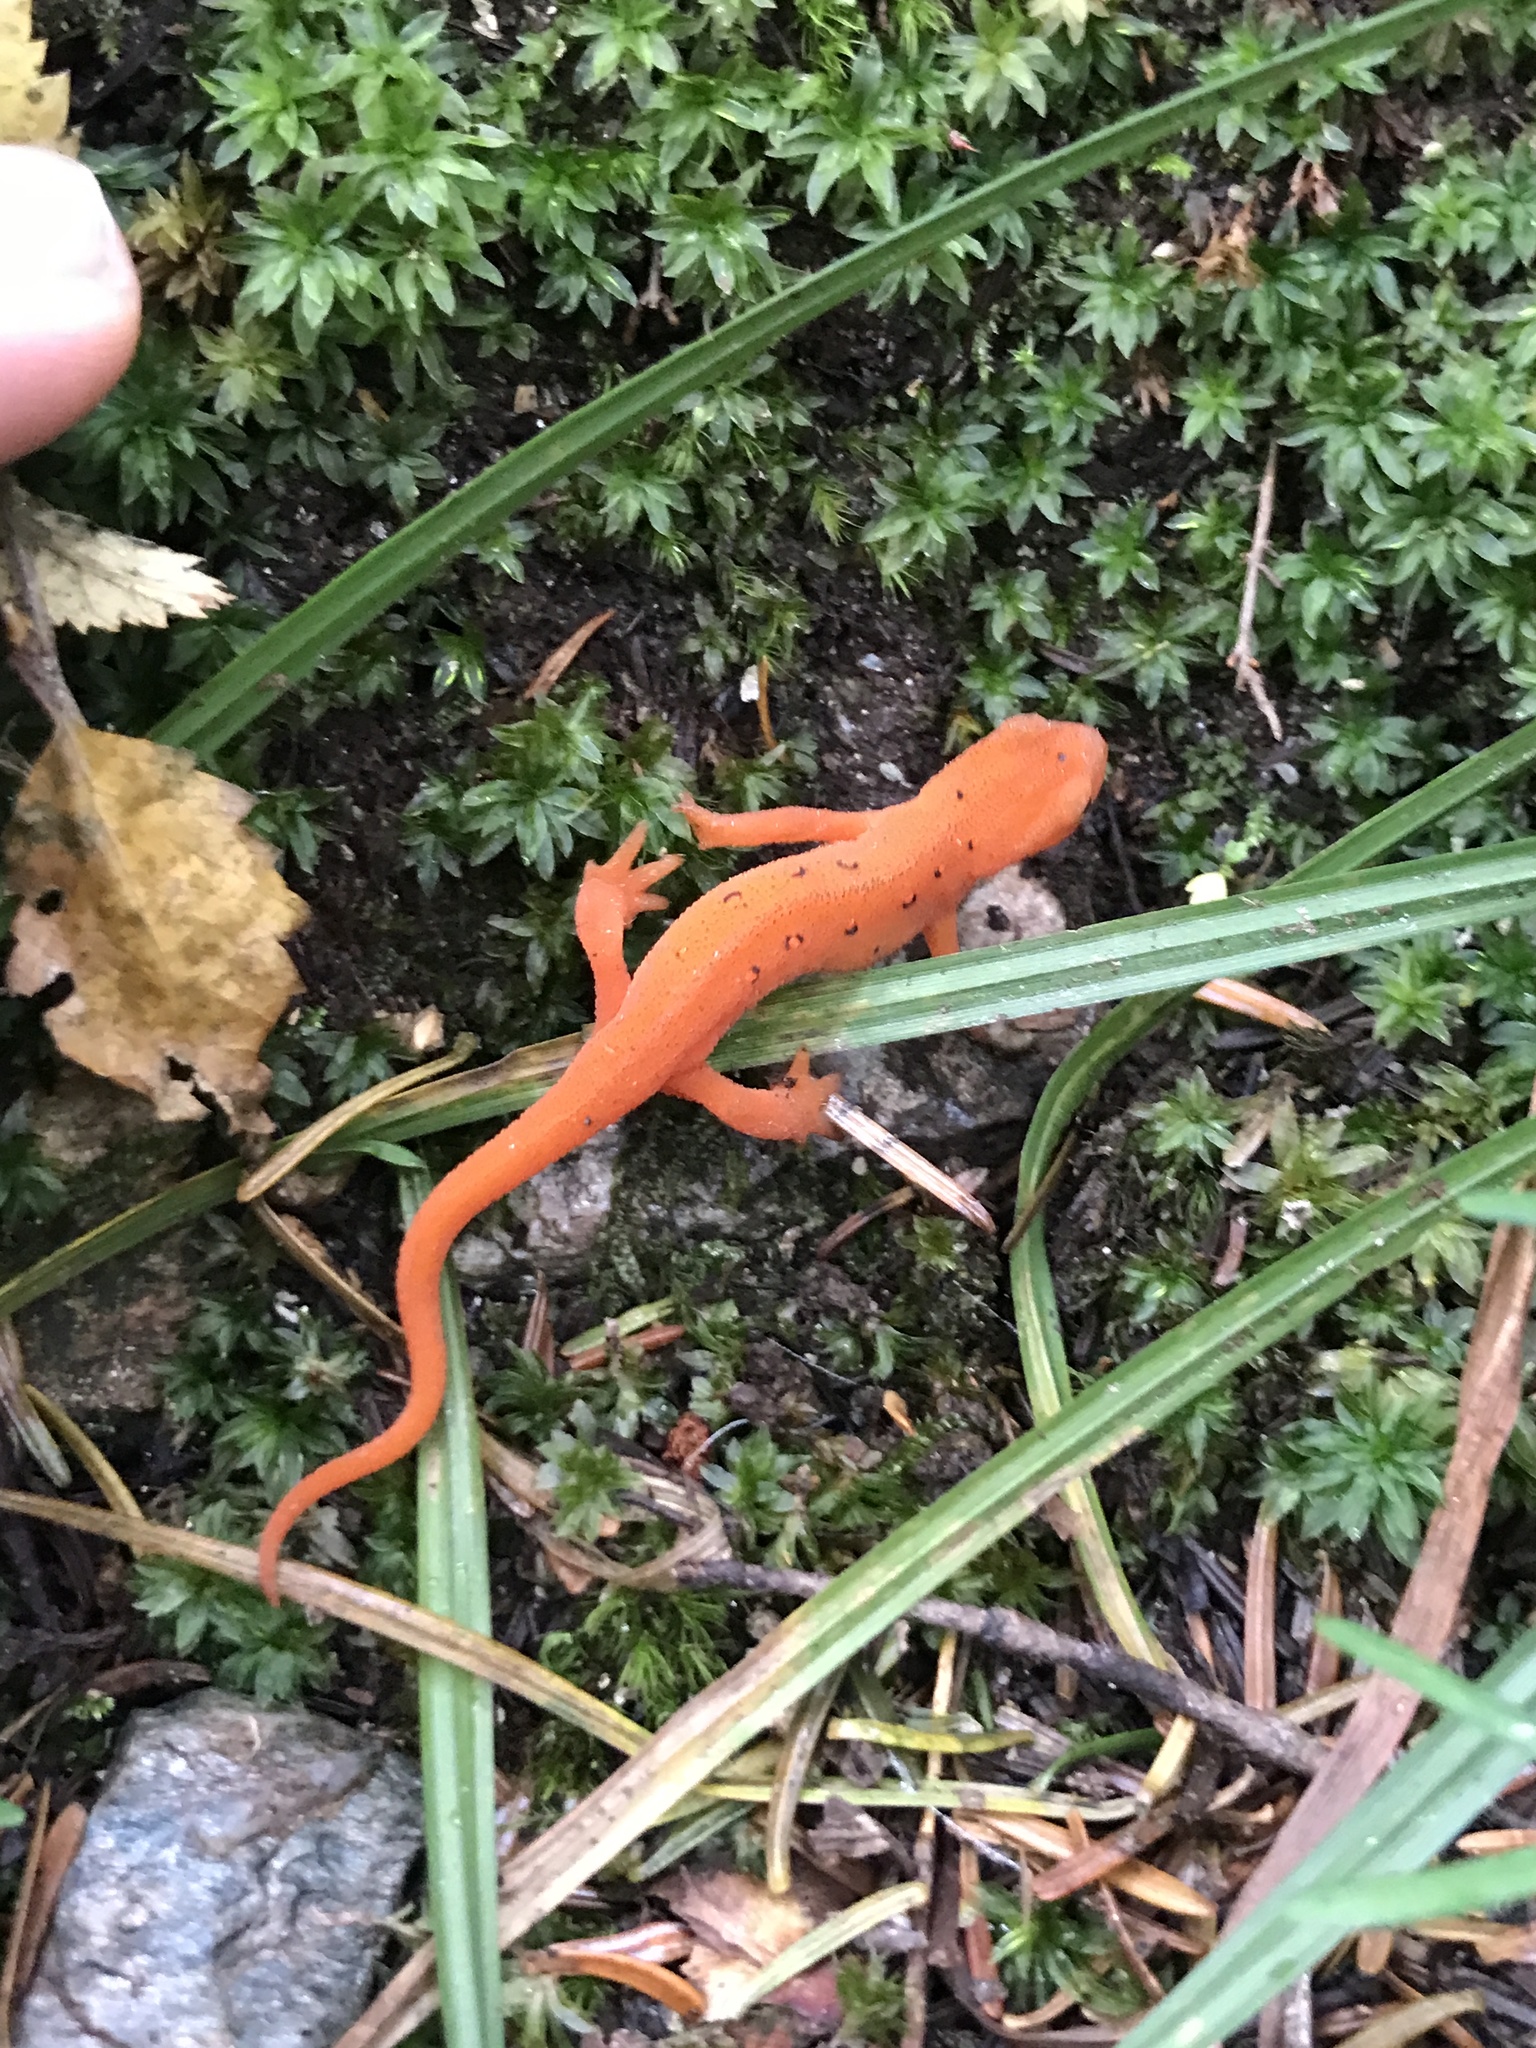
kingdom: Animalia
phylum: Chordata
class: Amphibia
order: Caudata
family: Salamandridae
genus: Notophthalmus
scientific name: Notophthalmus viridescens
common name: Eastern newt
